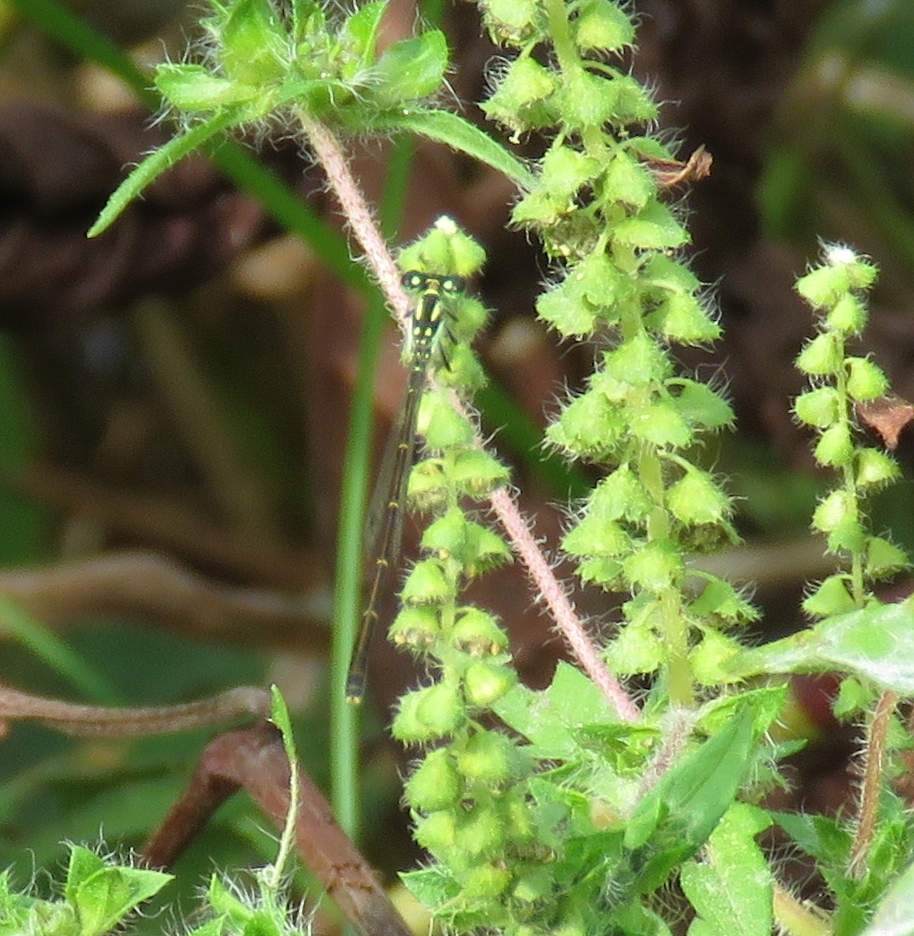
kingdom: Animalia
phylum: Arthropoda
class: Insecta
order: Odonata
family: Coenagrionidae
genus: Ischnura
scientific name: Ischnura posita
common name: Fragile forktail
